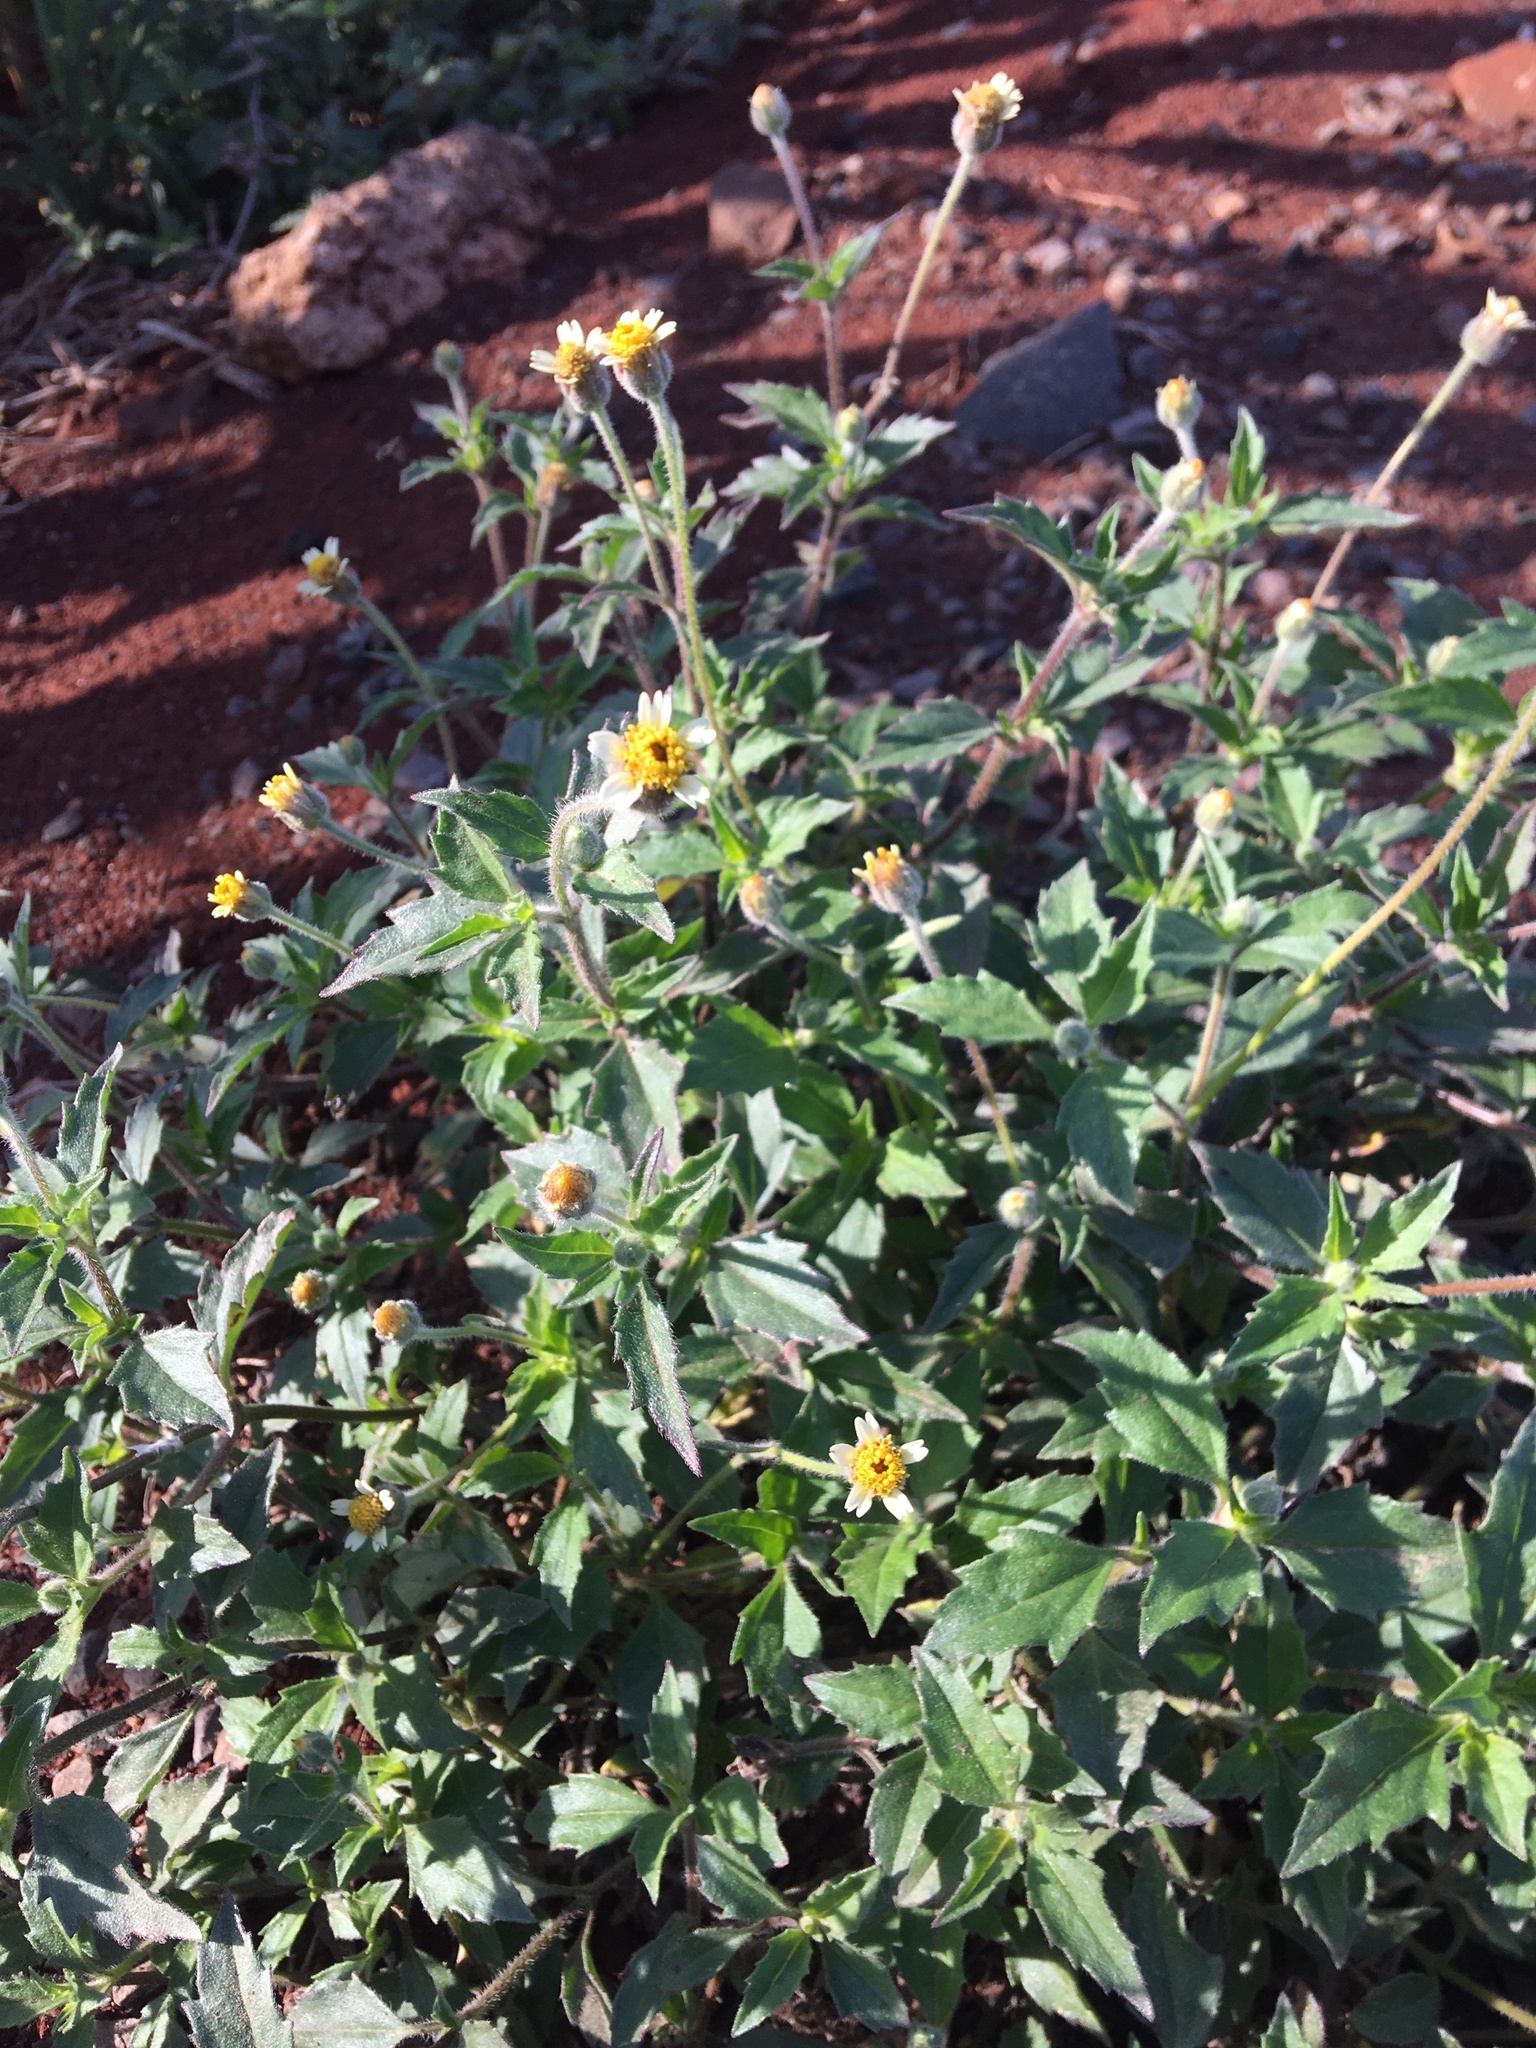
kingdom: Plantae
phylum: Tracheophyta
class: Magnoliopsida
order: Asterales
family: Asteraceae
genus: Tridax
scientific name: Tridax procumbens
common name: Coatbuttons
